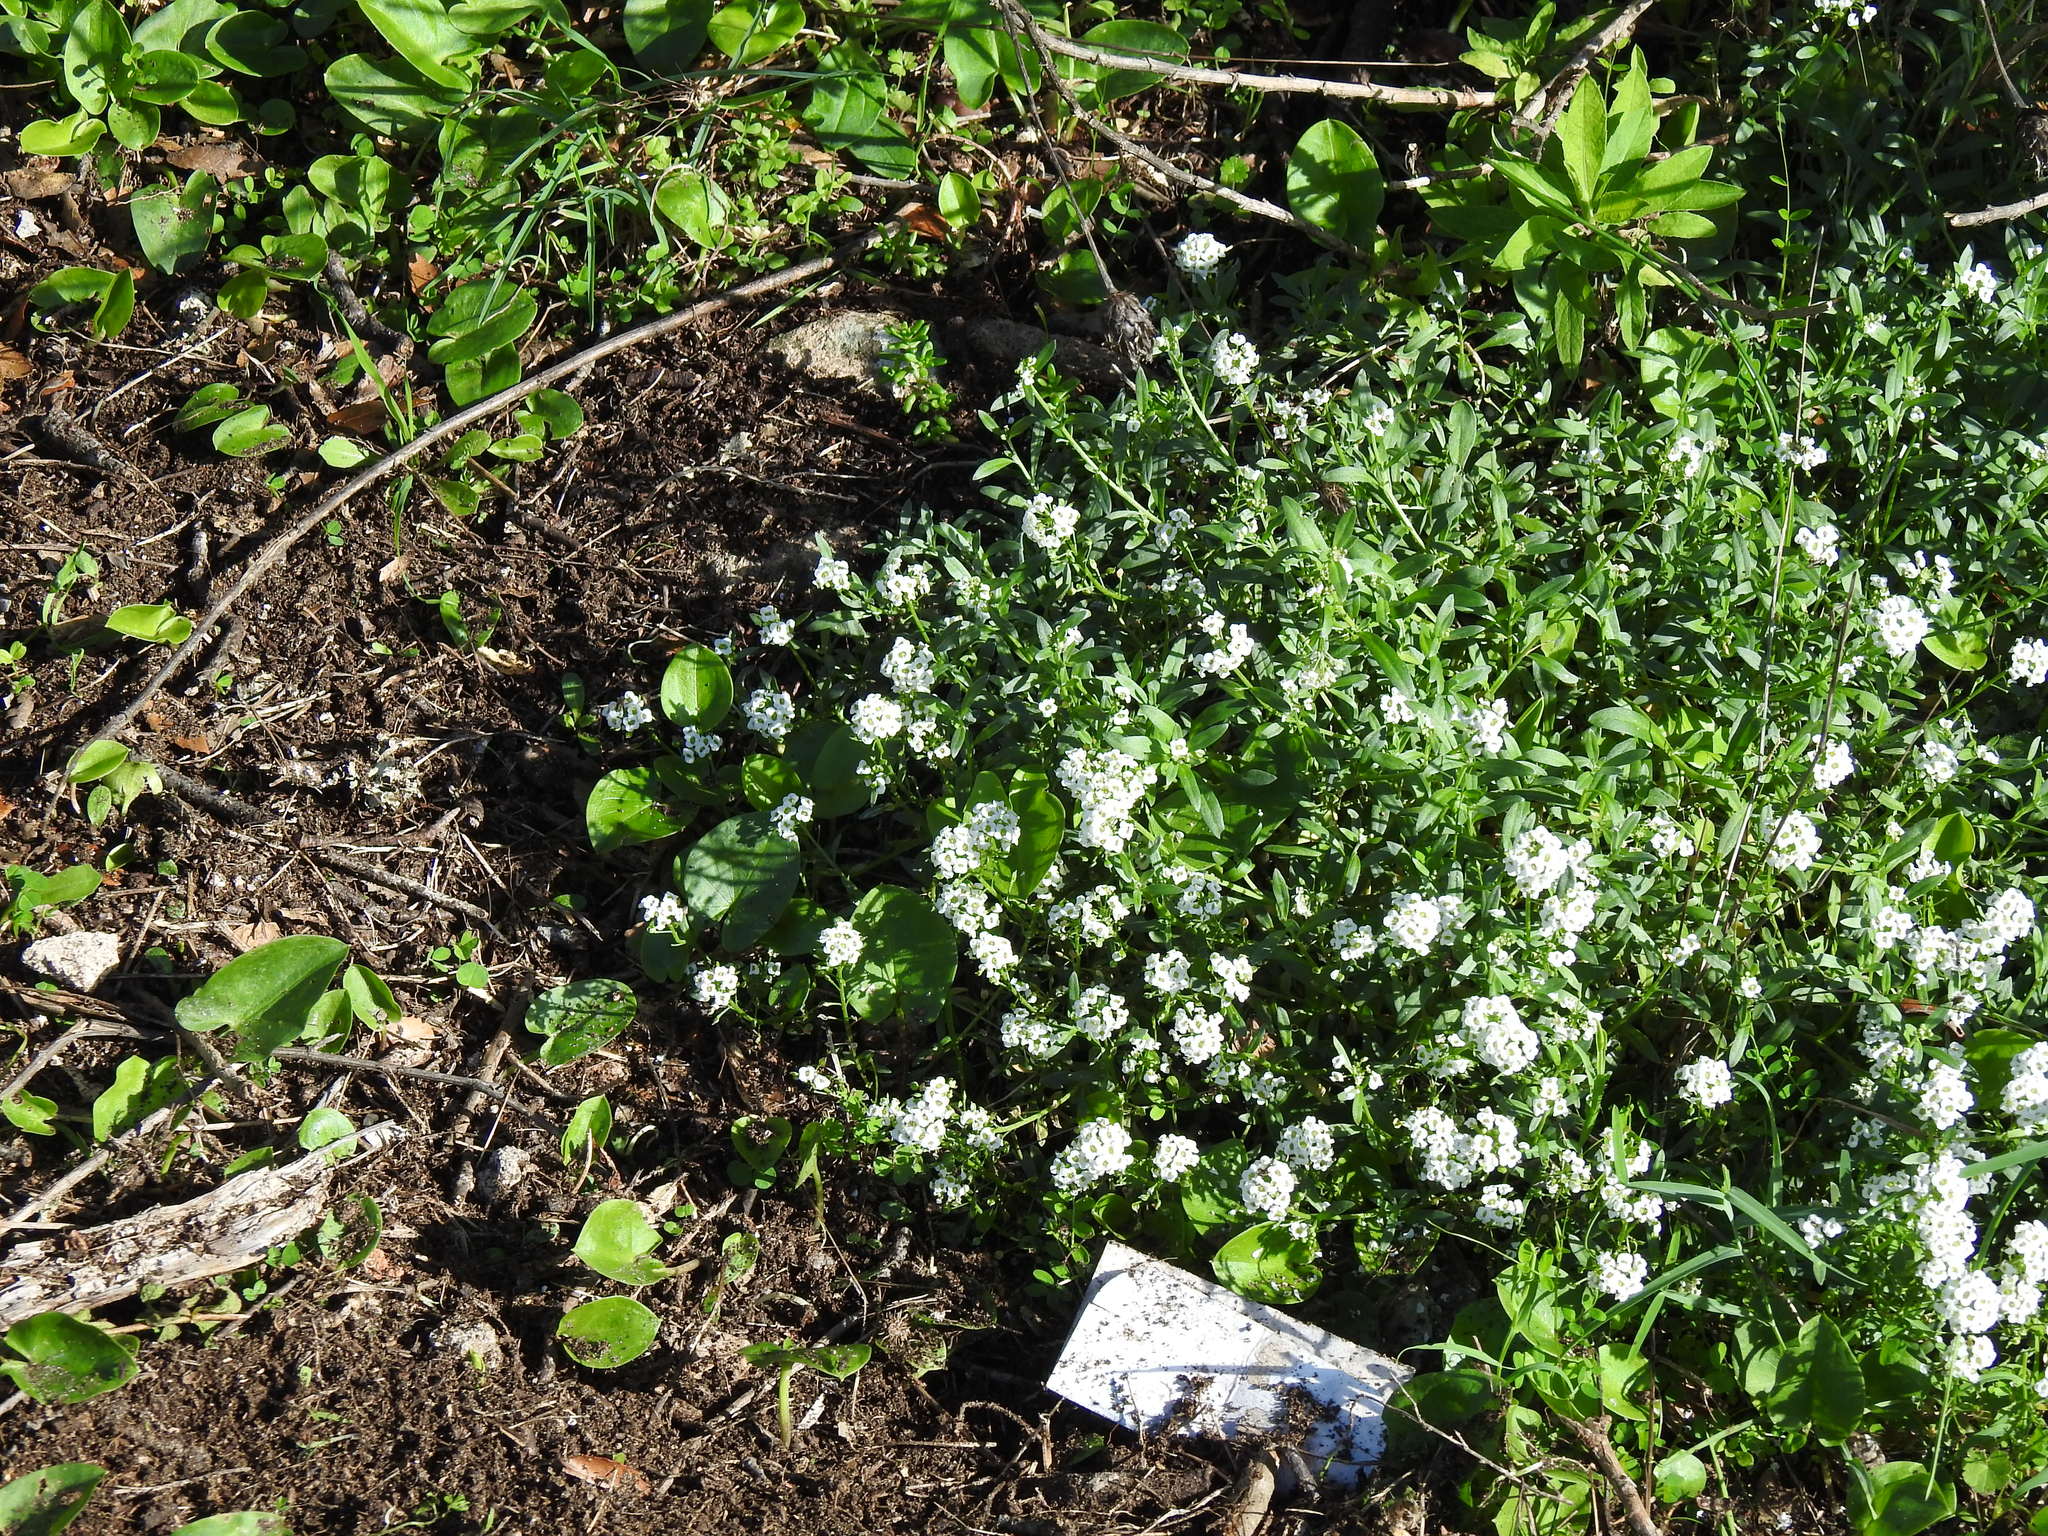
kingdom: Plantae
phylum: Tracheophyta
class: Magnoliopsida
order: Brassicales
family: Brassicaceae
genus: Lobularia
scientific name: Lobularia maritima
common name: Sweet alison
